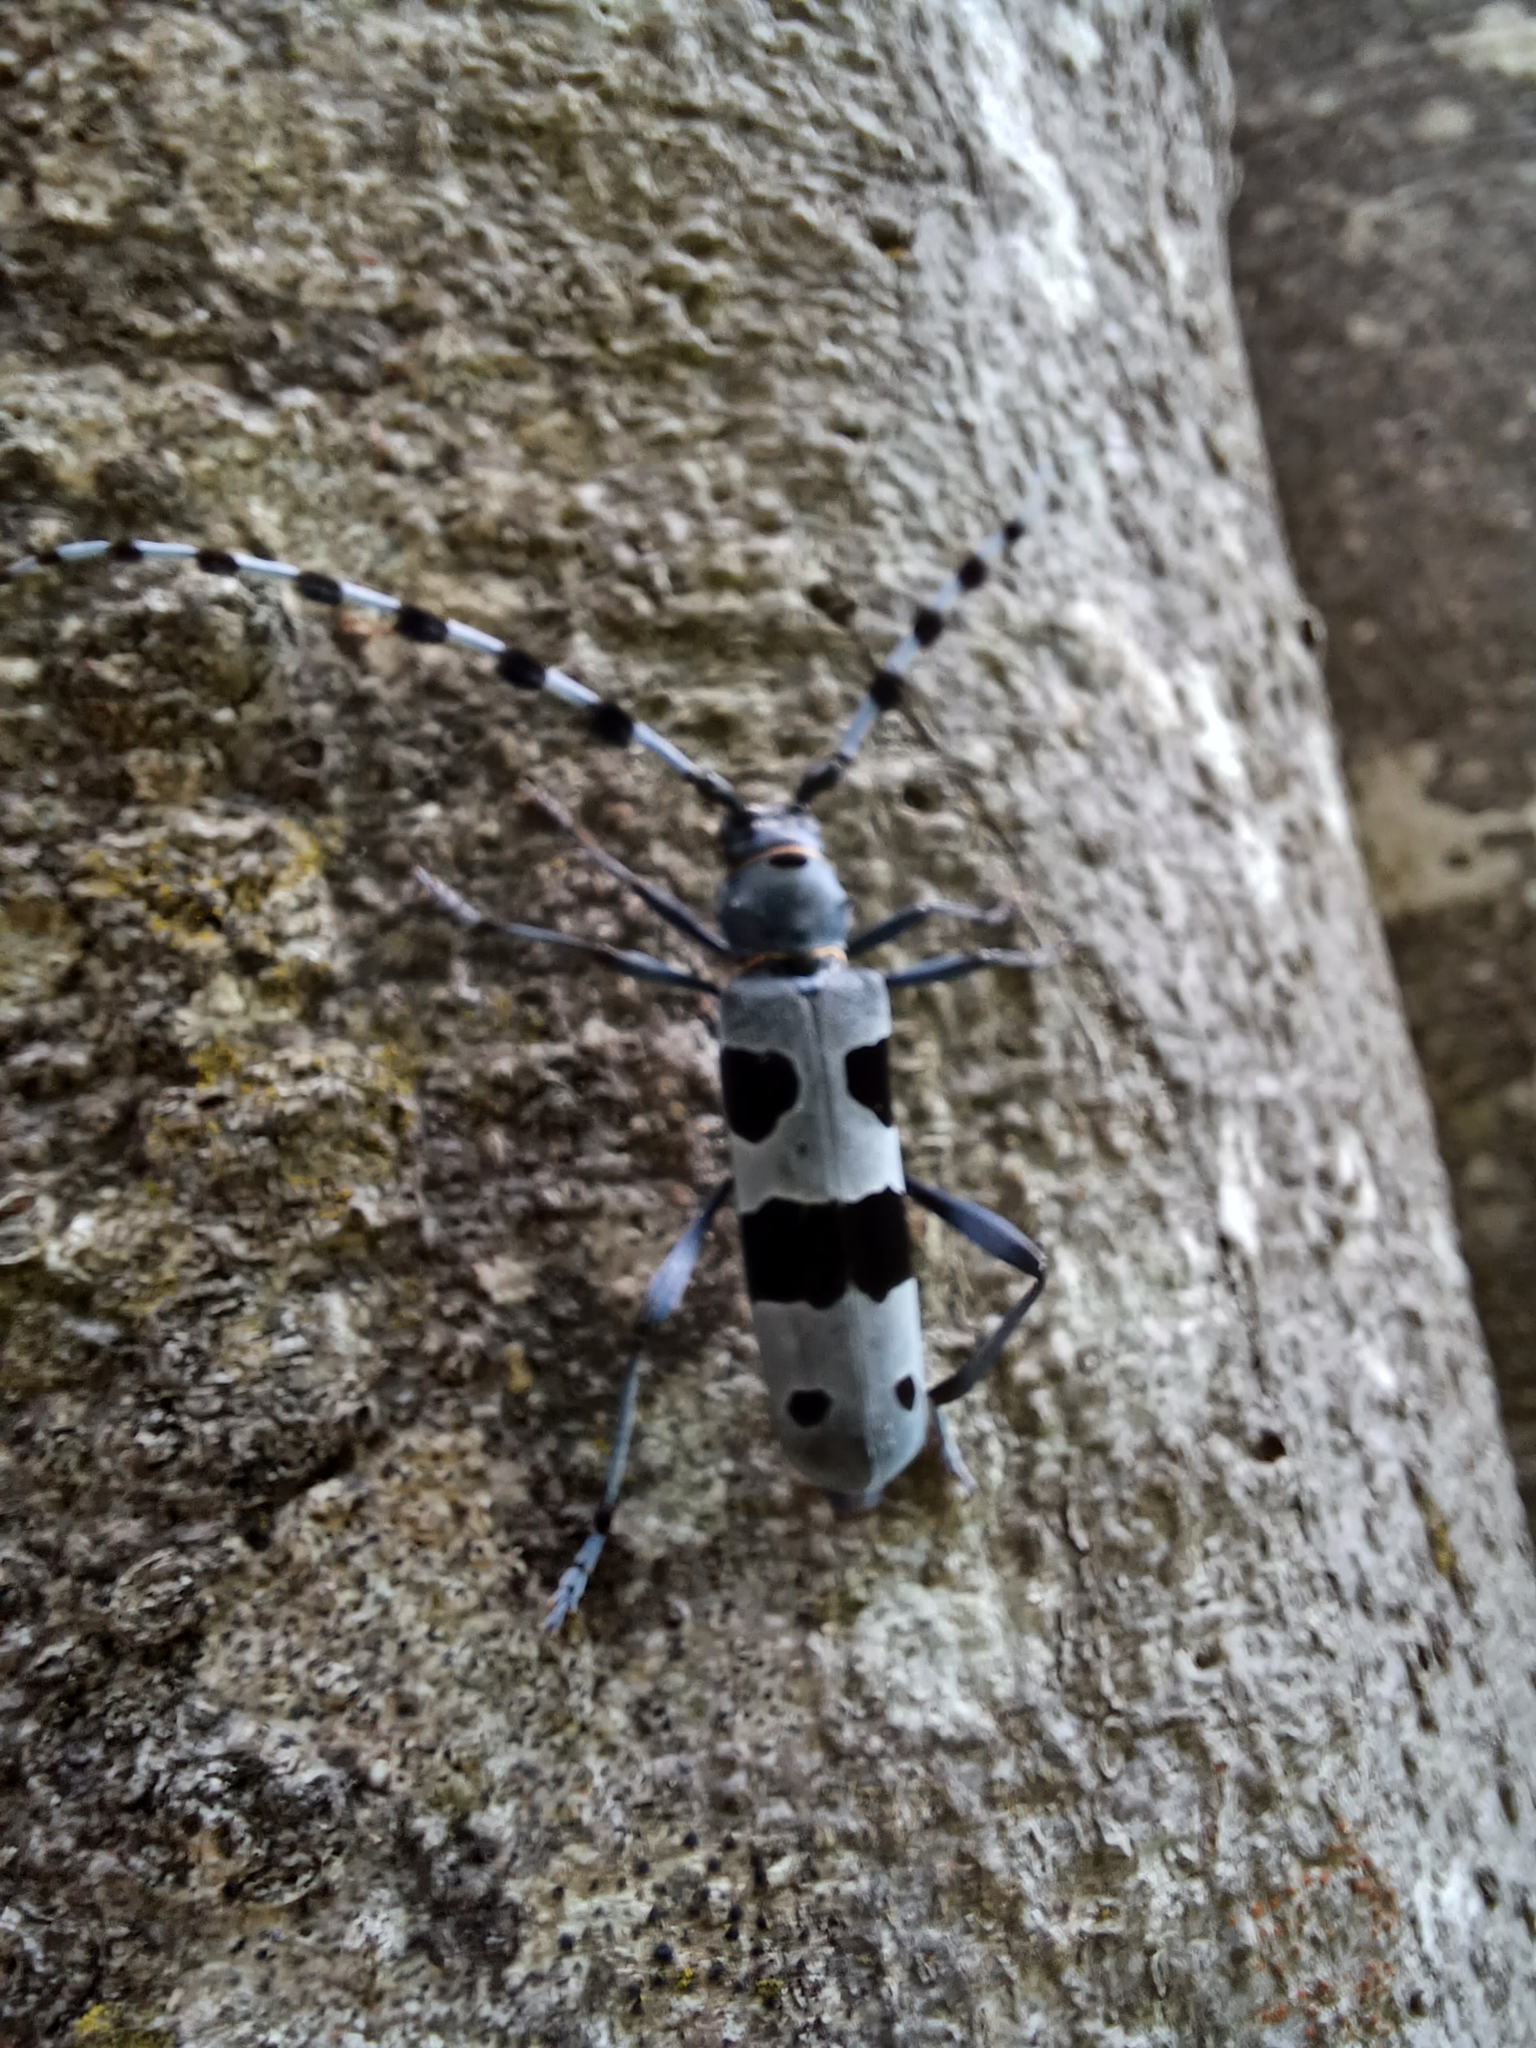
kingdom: Animalia
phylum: Arthropoda
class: Insecta
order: Coleoptera
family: Cerambycidae
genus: Rosalia
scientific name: Rosalia alpina
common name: Rosalia longicorn
